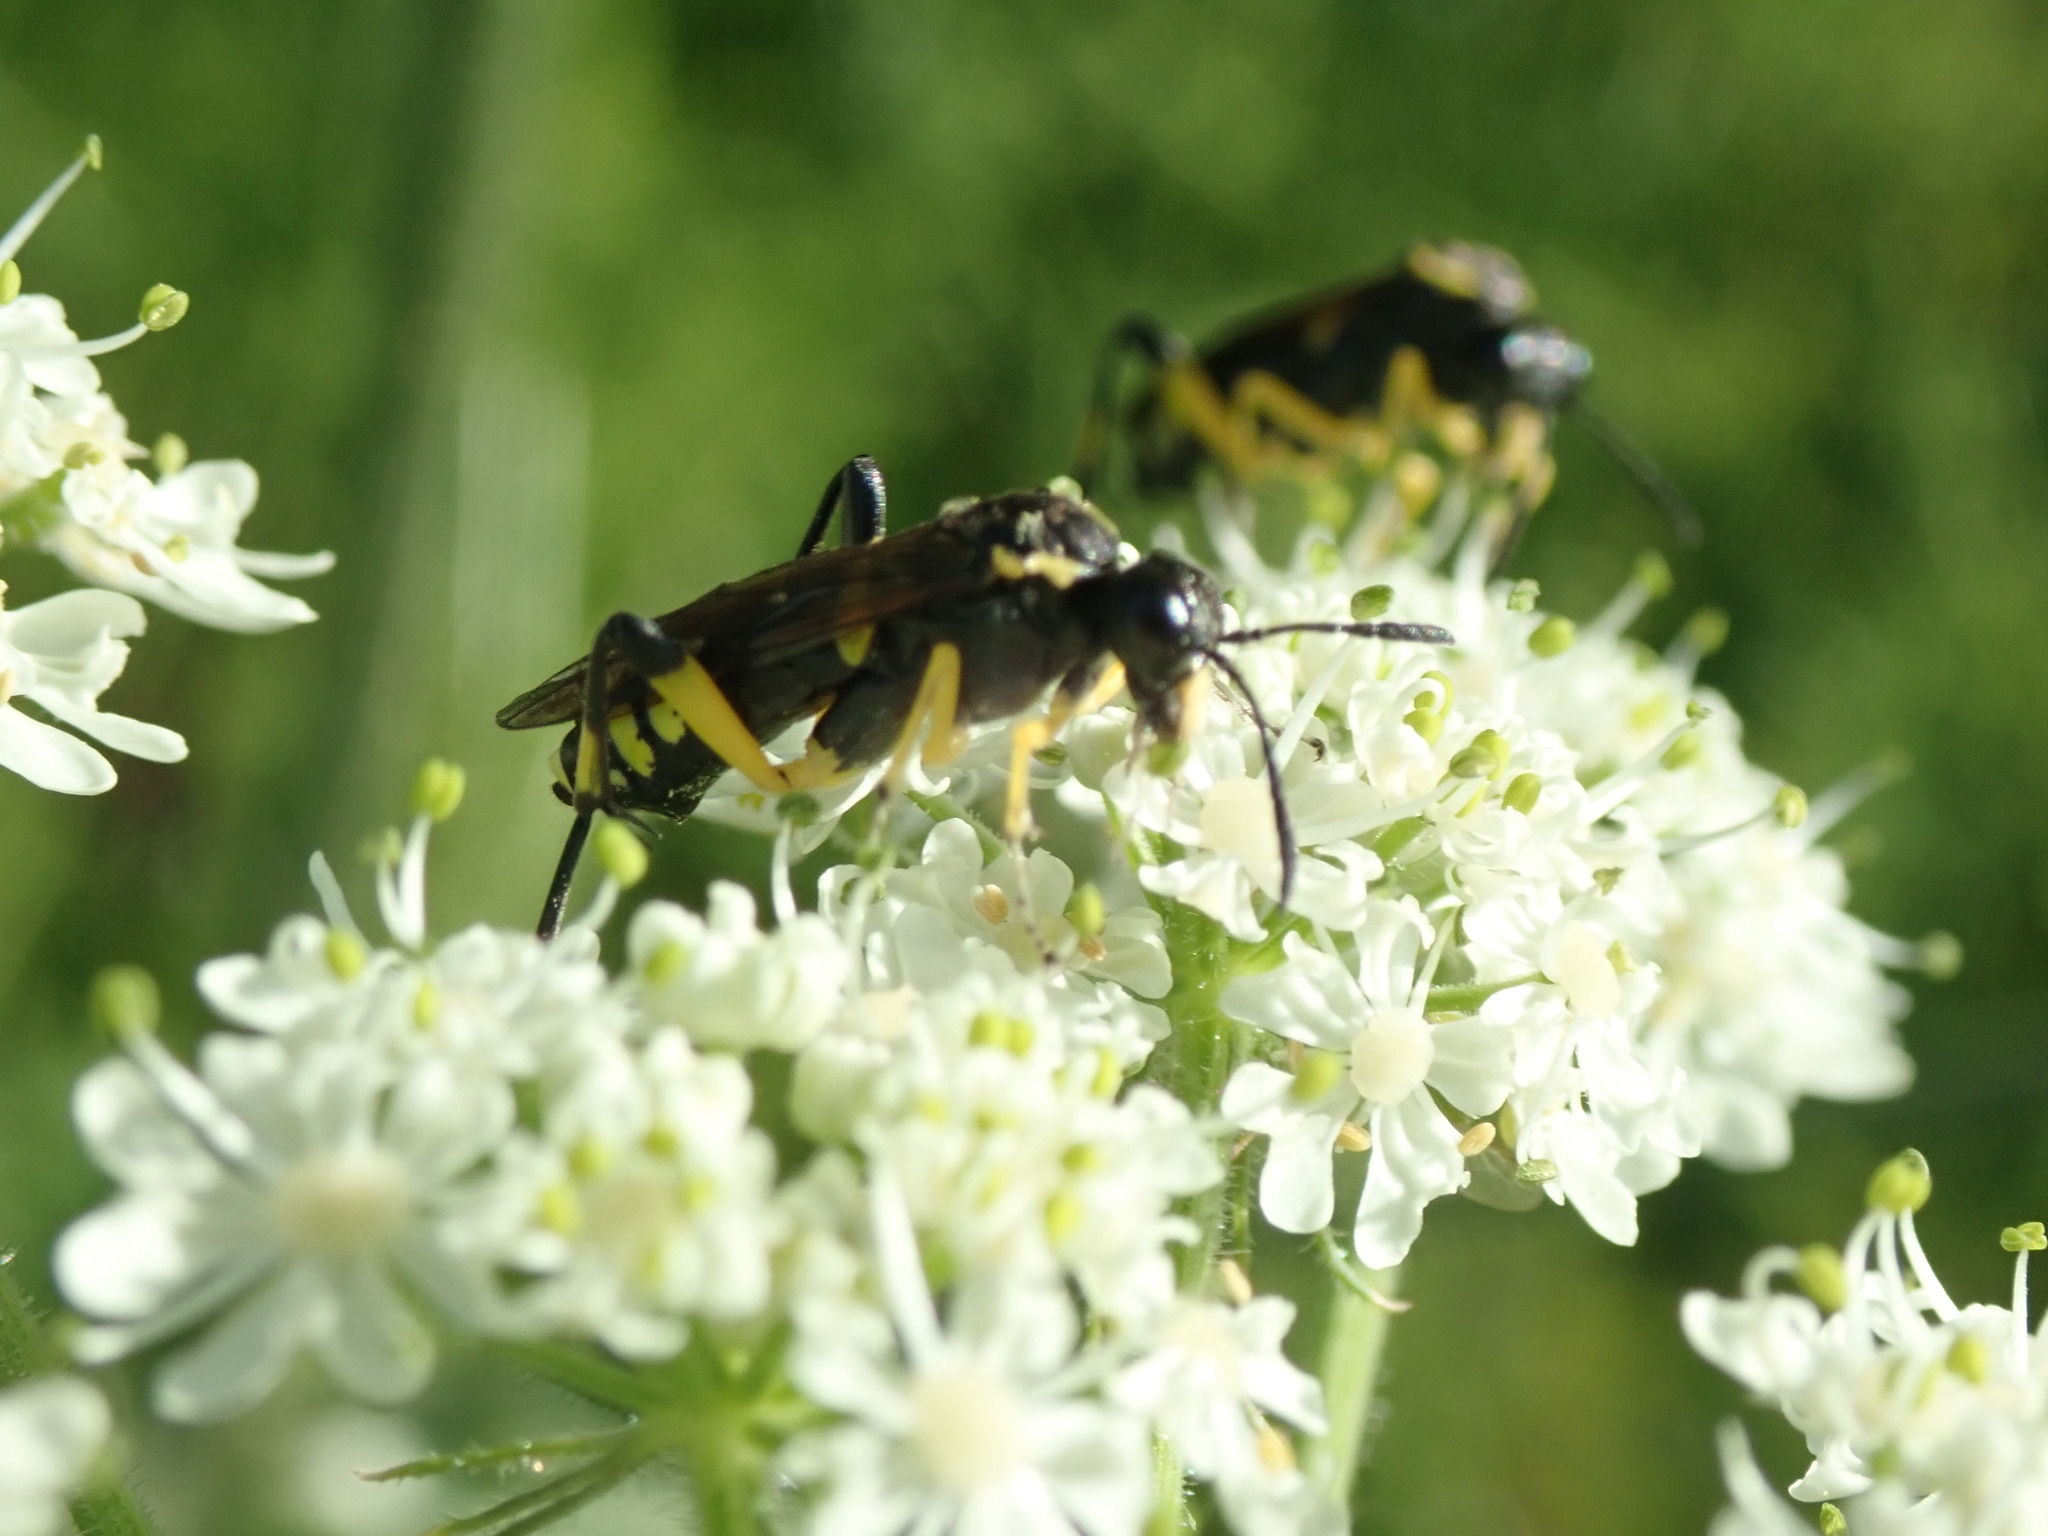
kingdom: Animalia
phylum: Arthropoda
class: Insecta
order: Hymenoptera
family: Tenthredinidae
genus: Macrophya
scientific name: Macrophya montana
